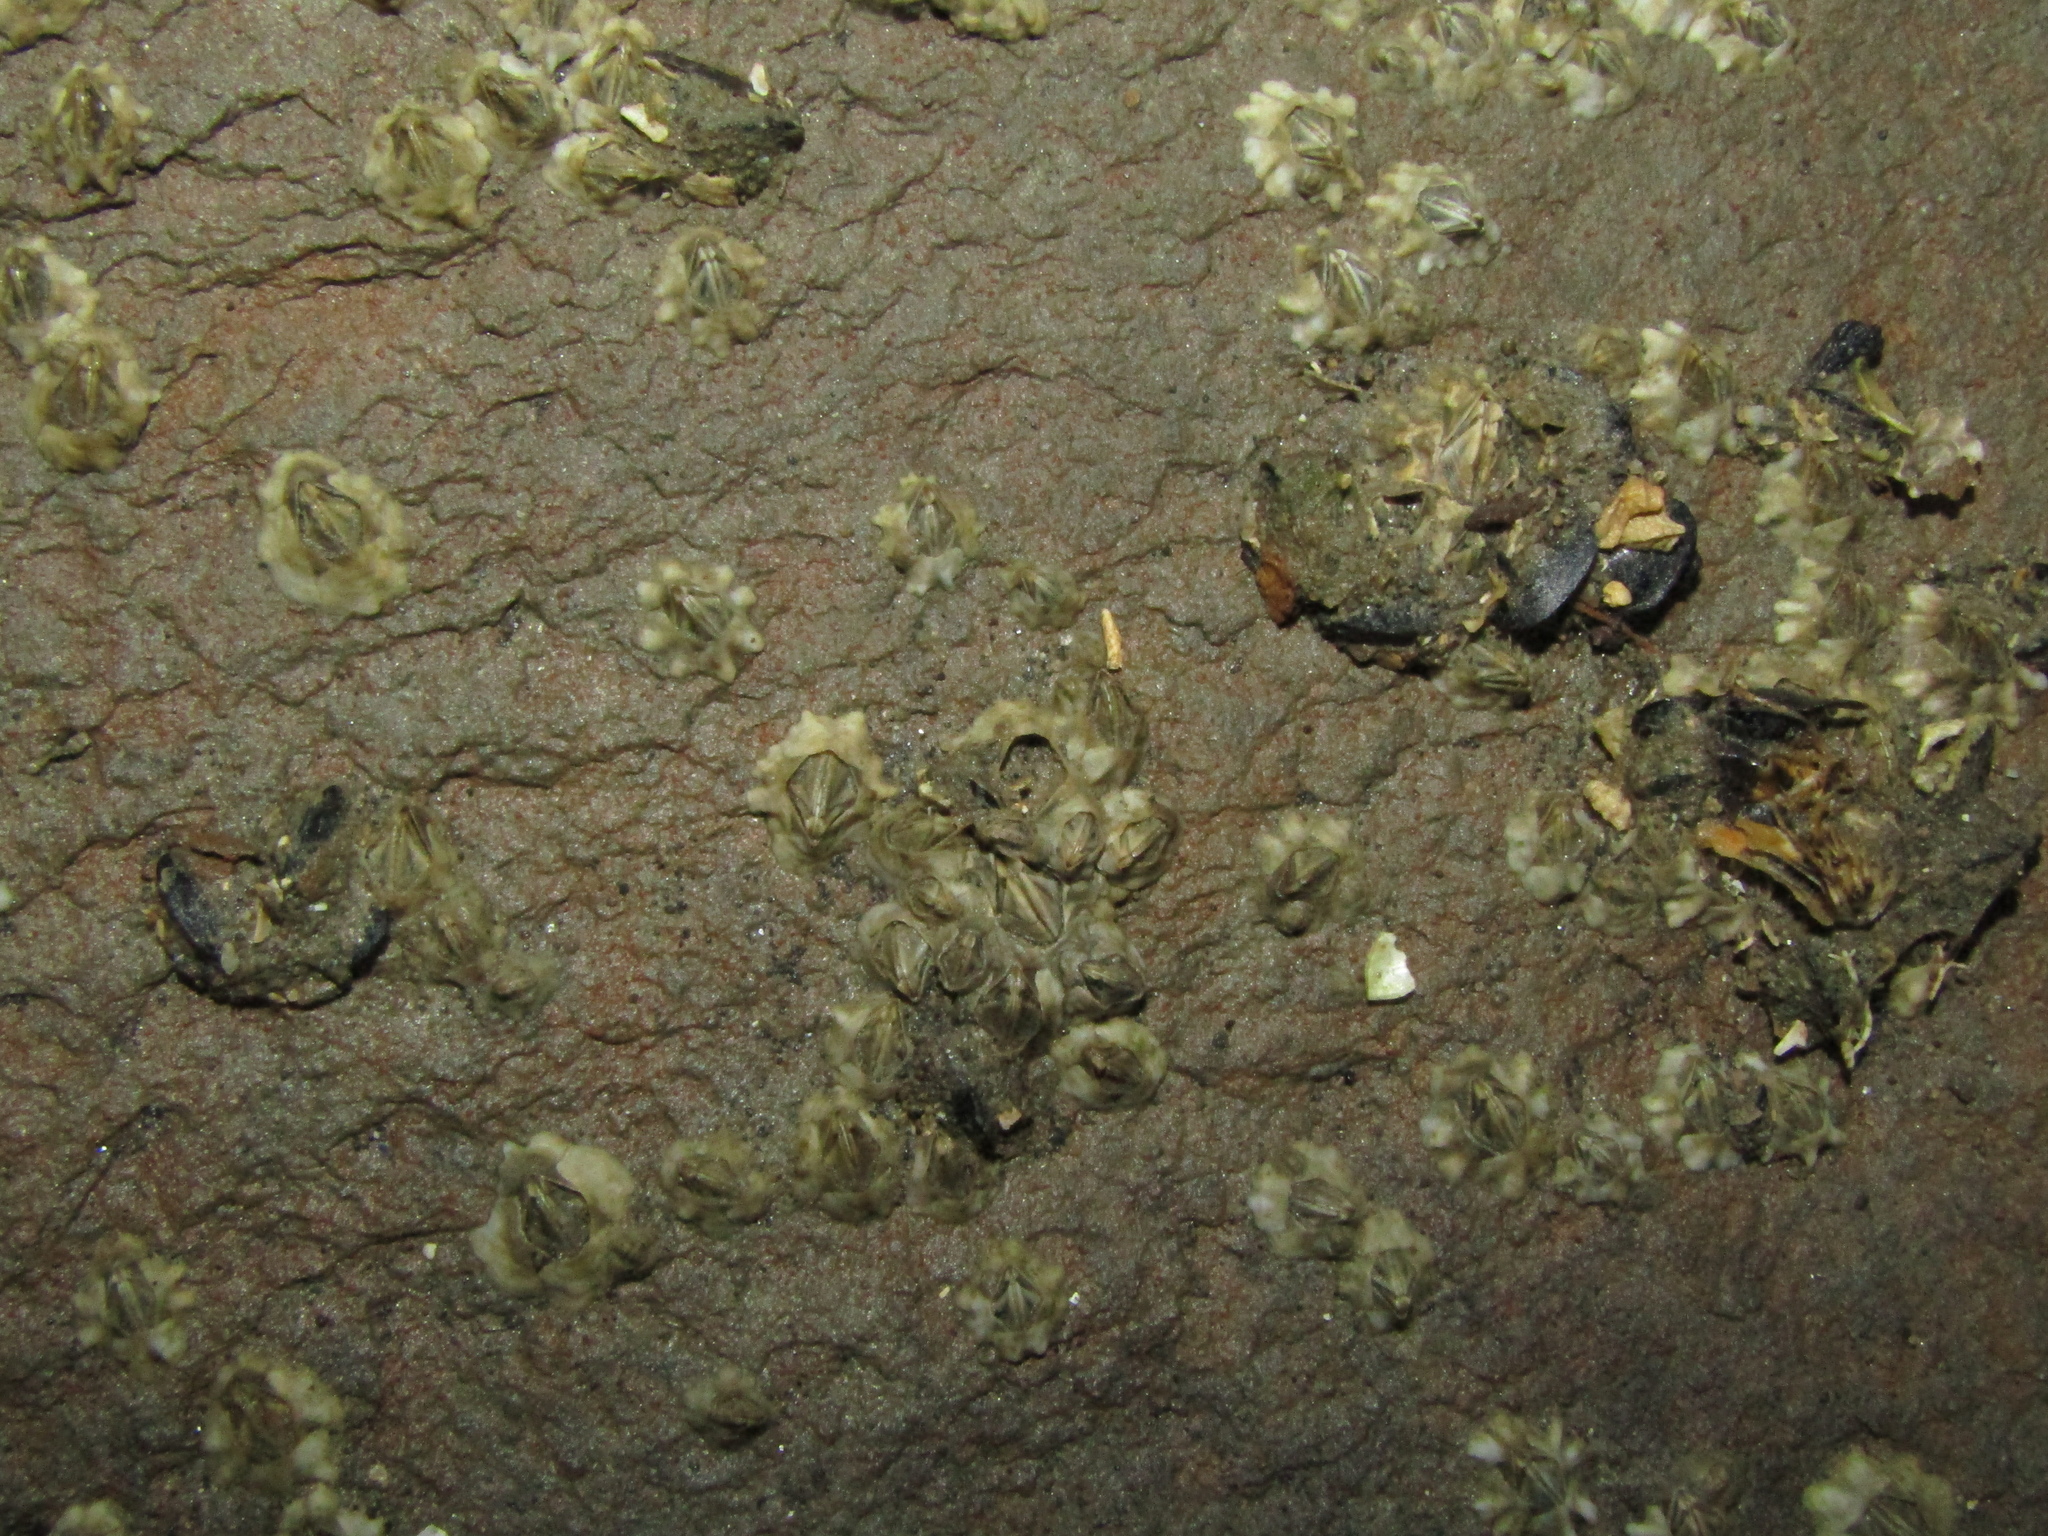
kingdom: Animalia
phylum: Arthropoda
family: Elminiidae
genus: Austrominius
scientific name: Austrominius modestus
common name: Australasian barnacle
